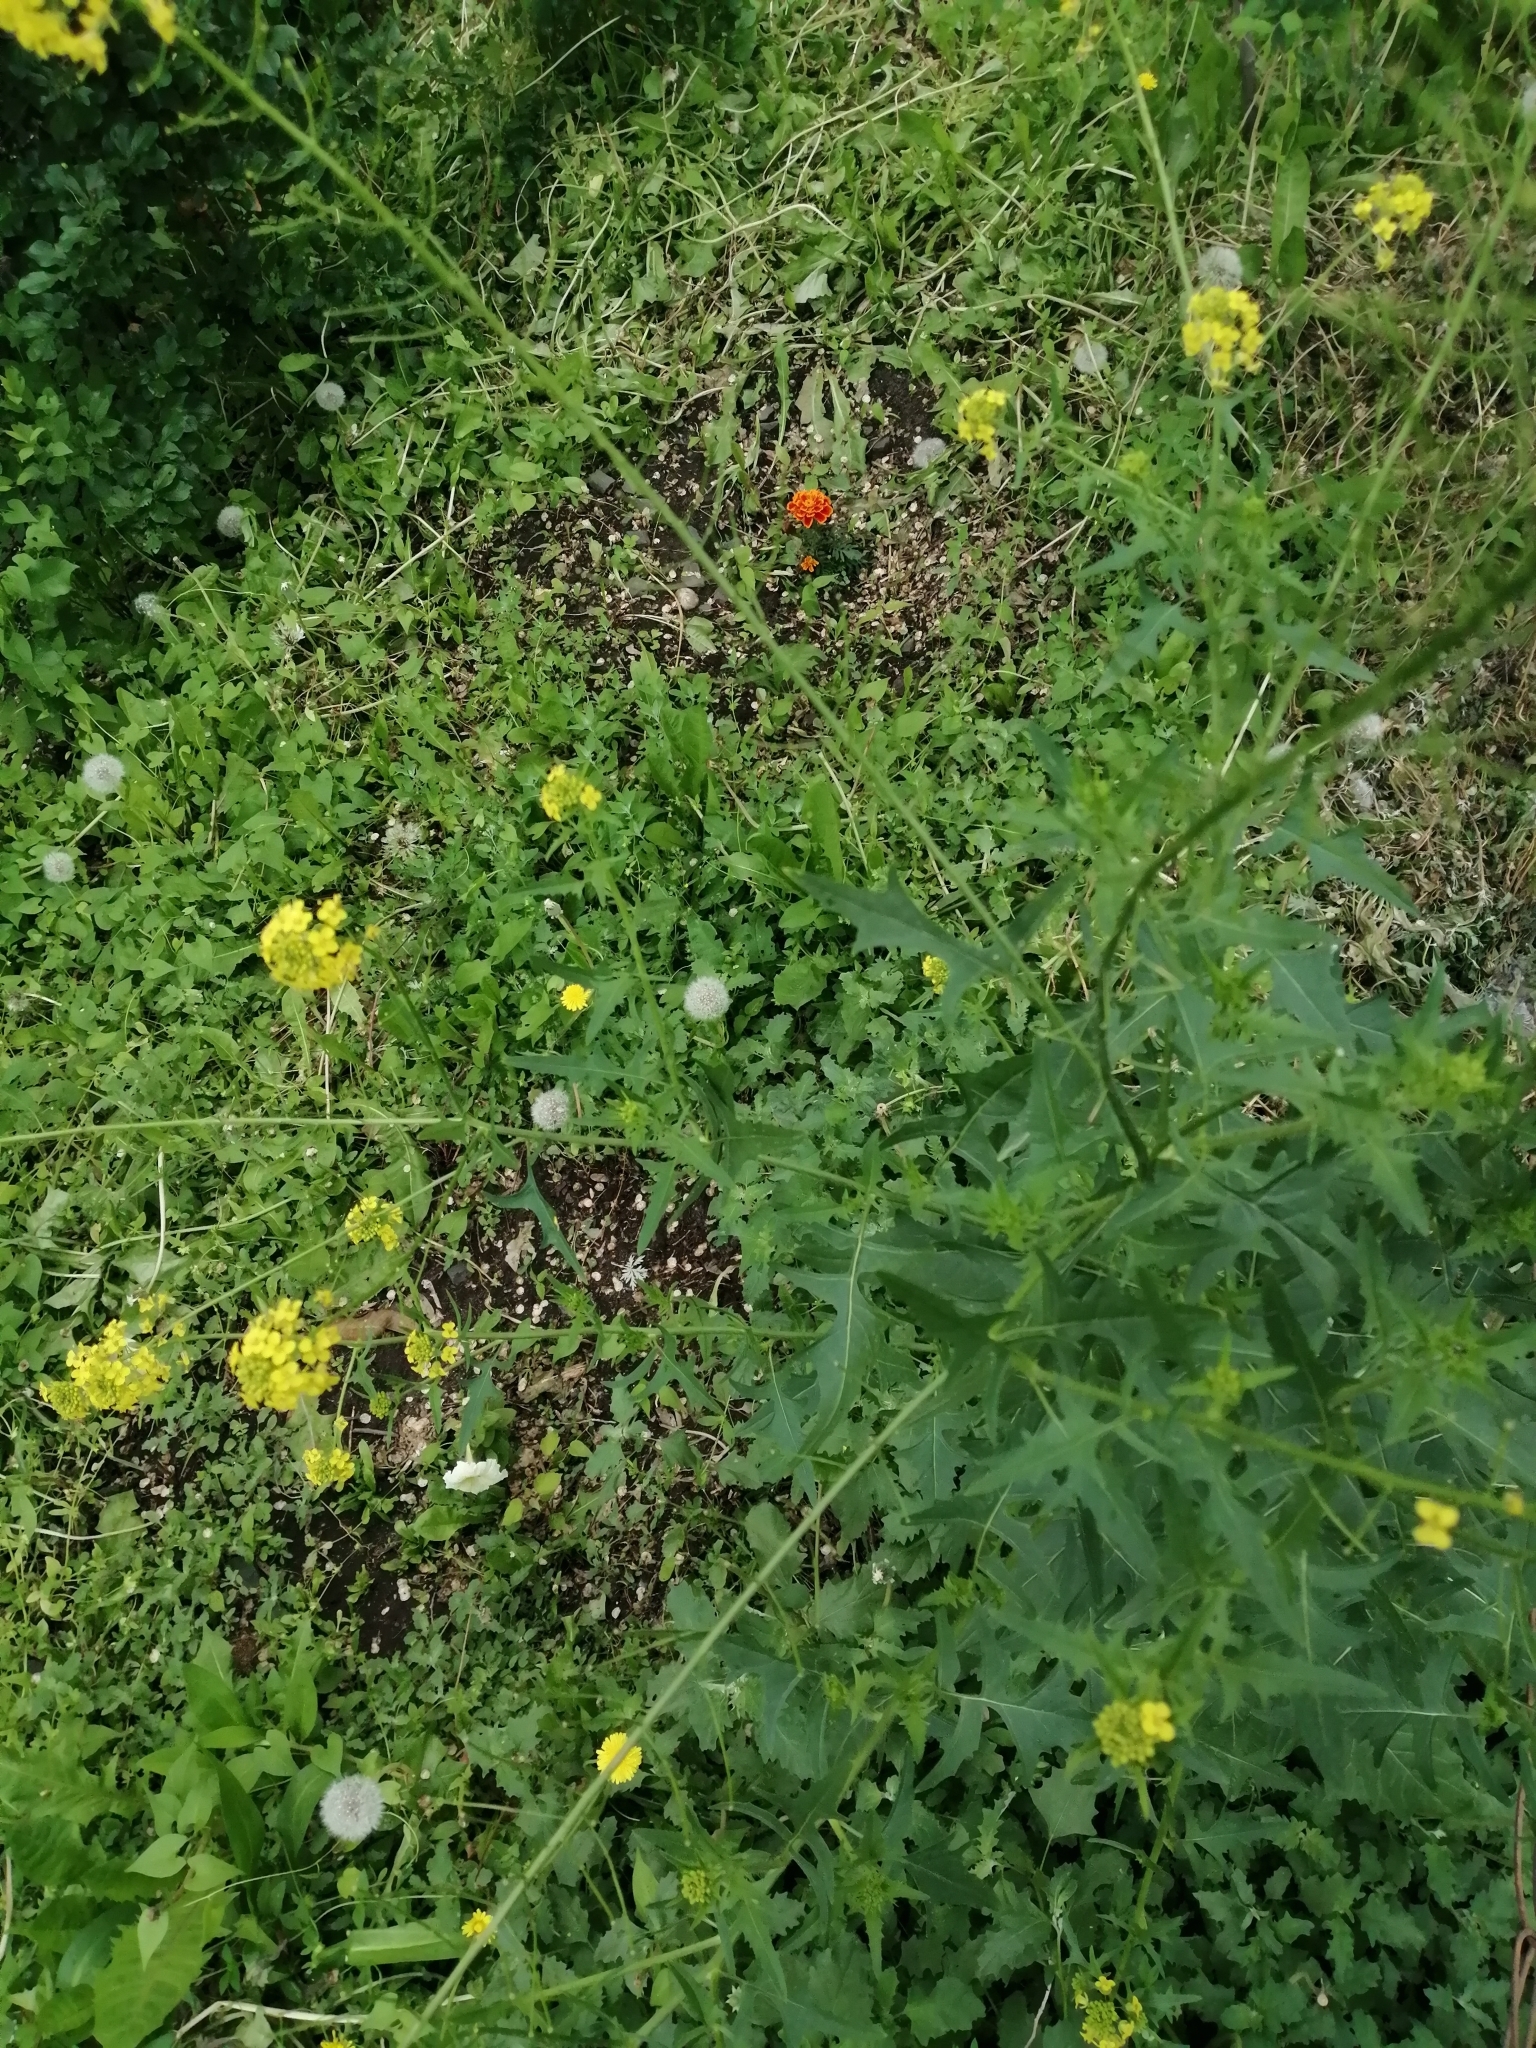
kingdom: Plantae
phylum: Tracheophyta
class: Magnoliopsida
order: Brassicales
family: Brassicaceae
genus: Sisymbrium
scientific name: Sisymbrium loeselii
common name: False london-rocket
